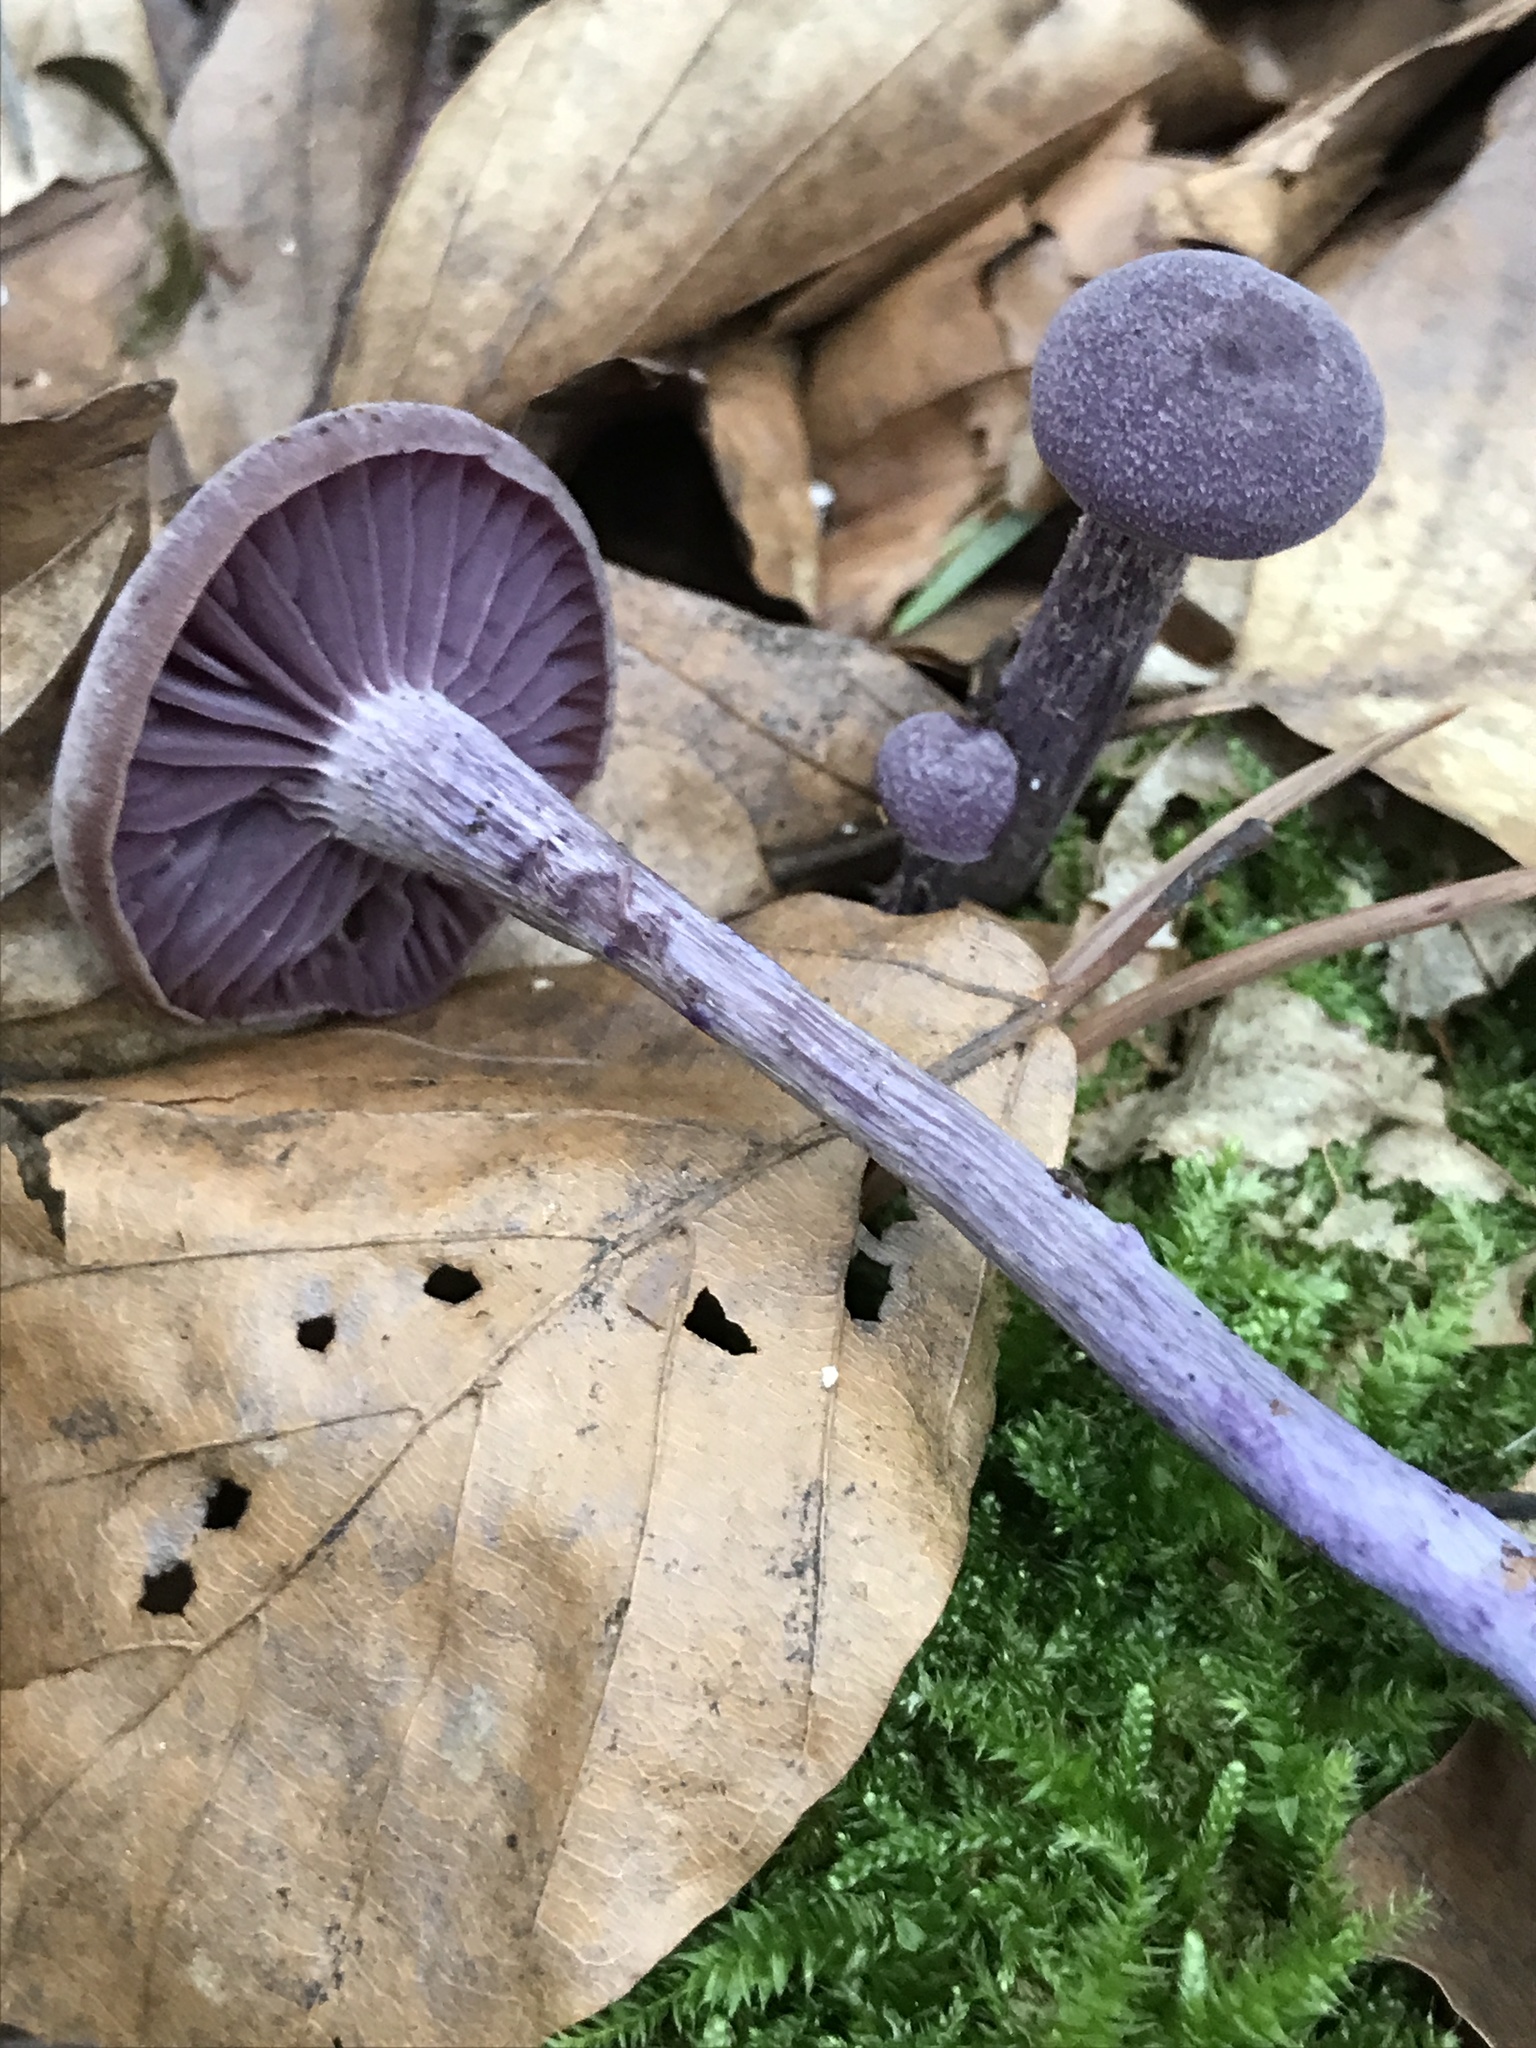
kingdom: Fungi
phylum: Basidiomycota
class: Agaricomycetes
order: Agaricales
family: Hydnangiaceae
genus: Laccaria
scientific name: Laccaria amethystina
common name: Amethyst deceiver
